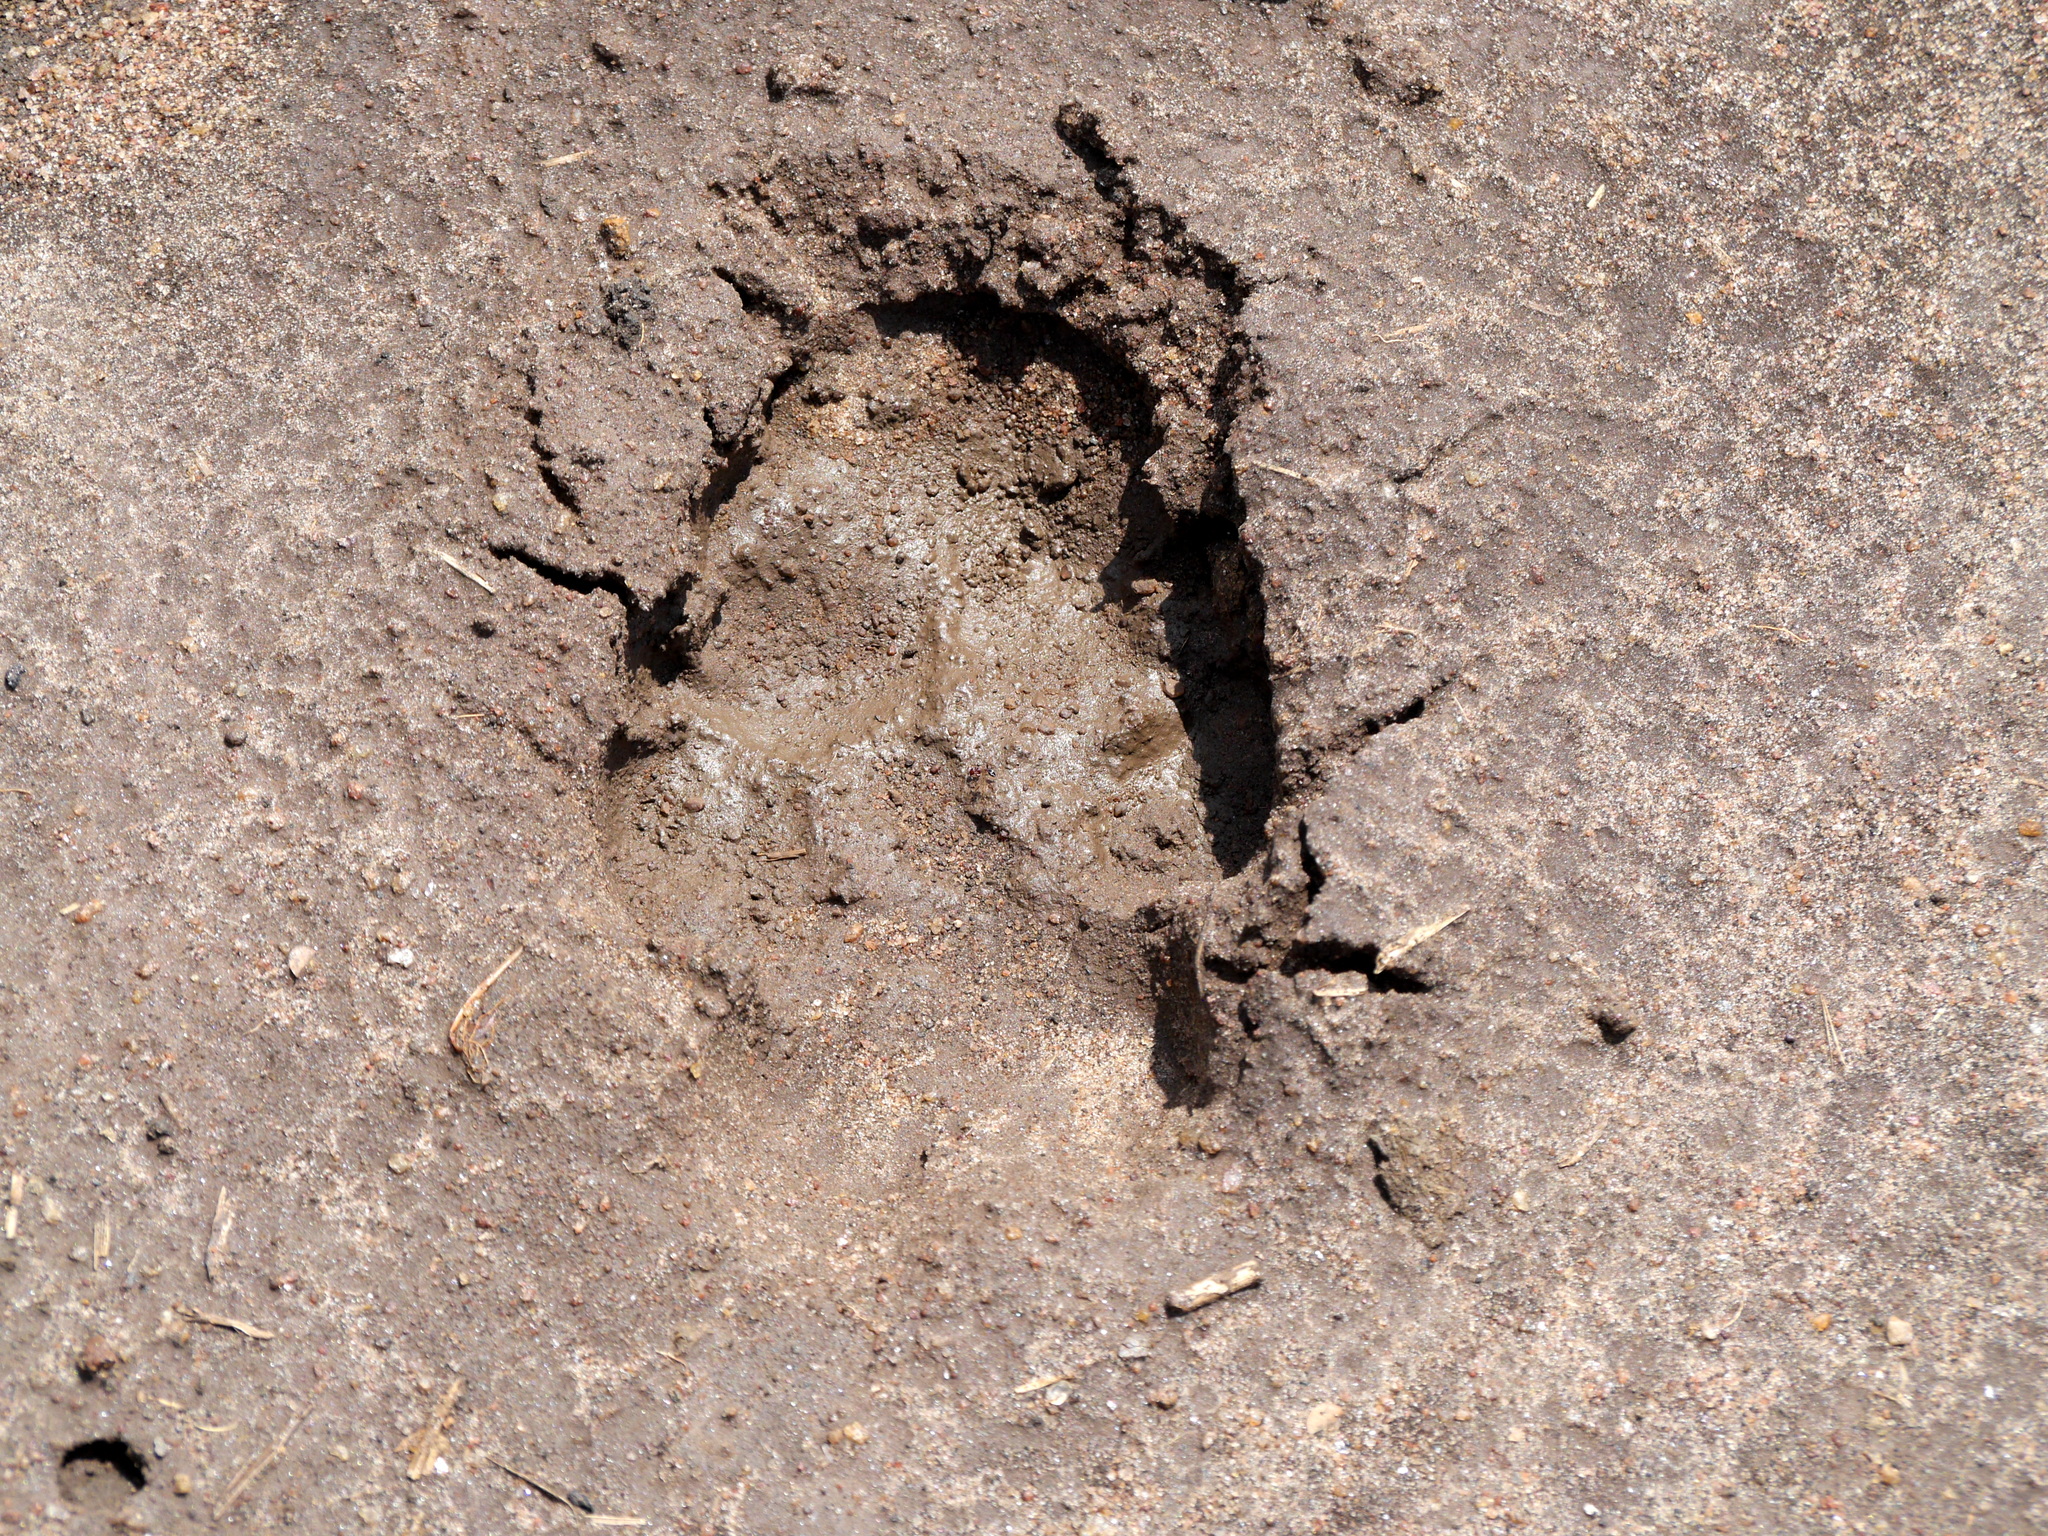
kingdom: Animalia
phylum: Chordata
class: Mammalia
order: Carnivora
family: Hyaenidae
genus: Crocuta
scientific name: Crocuta crocuta
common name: Spotted hyaena
